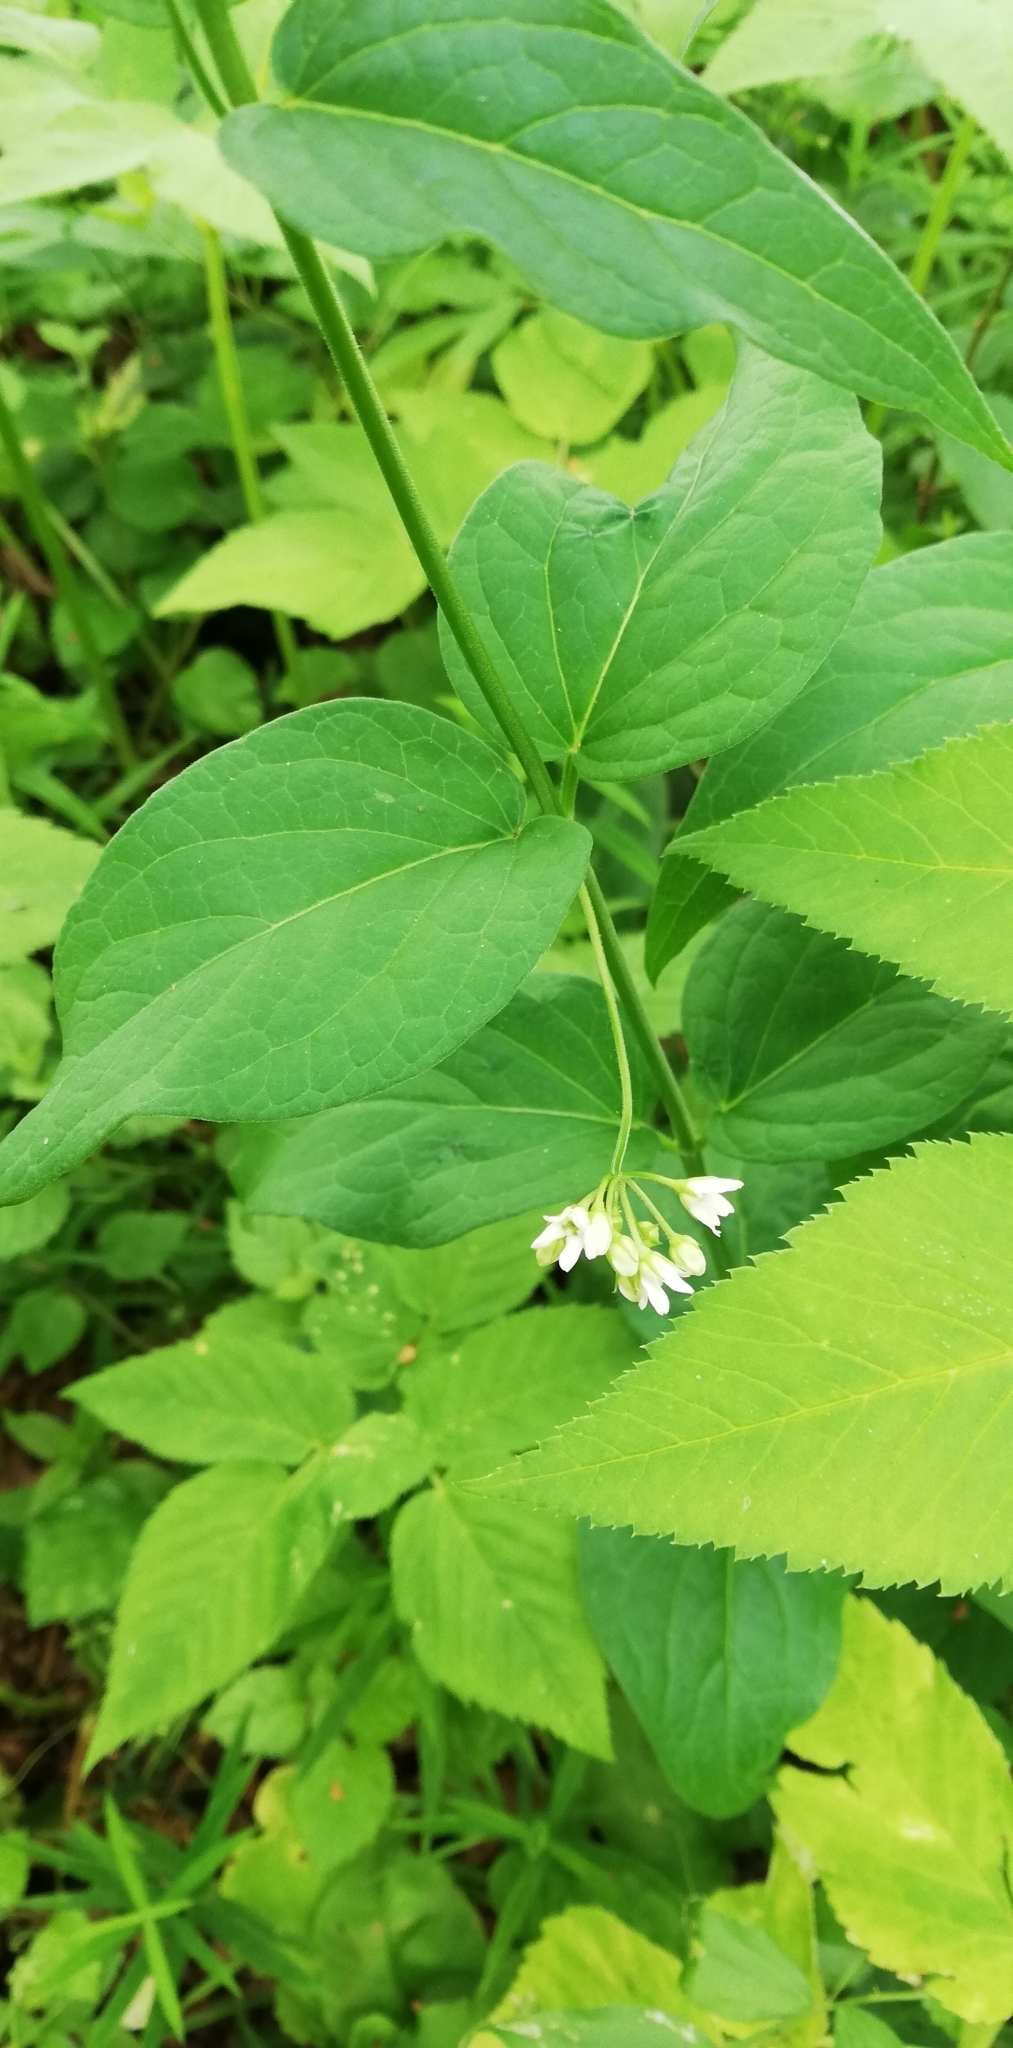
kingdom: Plantae
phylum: Tracheophyta
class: Magnoliopsida
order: Gentianales
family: Apocynaceae
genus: Vincetoxicum
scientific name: Vincetoxicum hirundinaria
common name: White swallowwort
